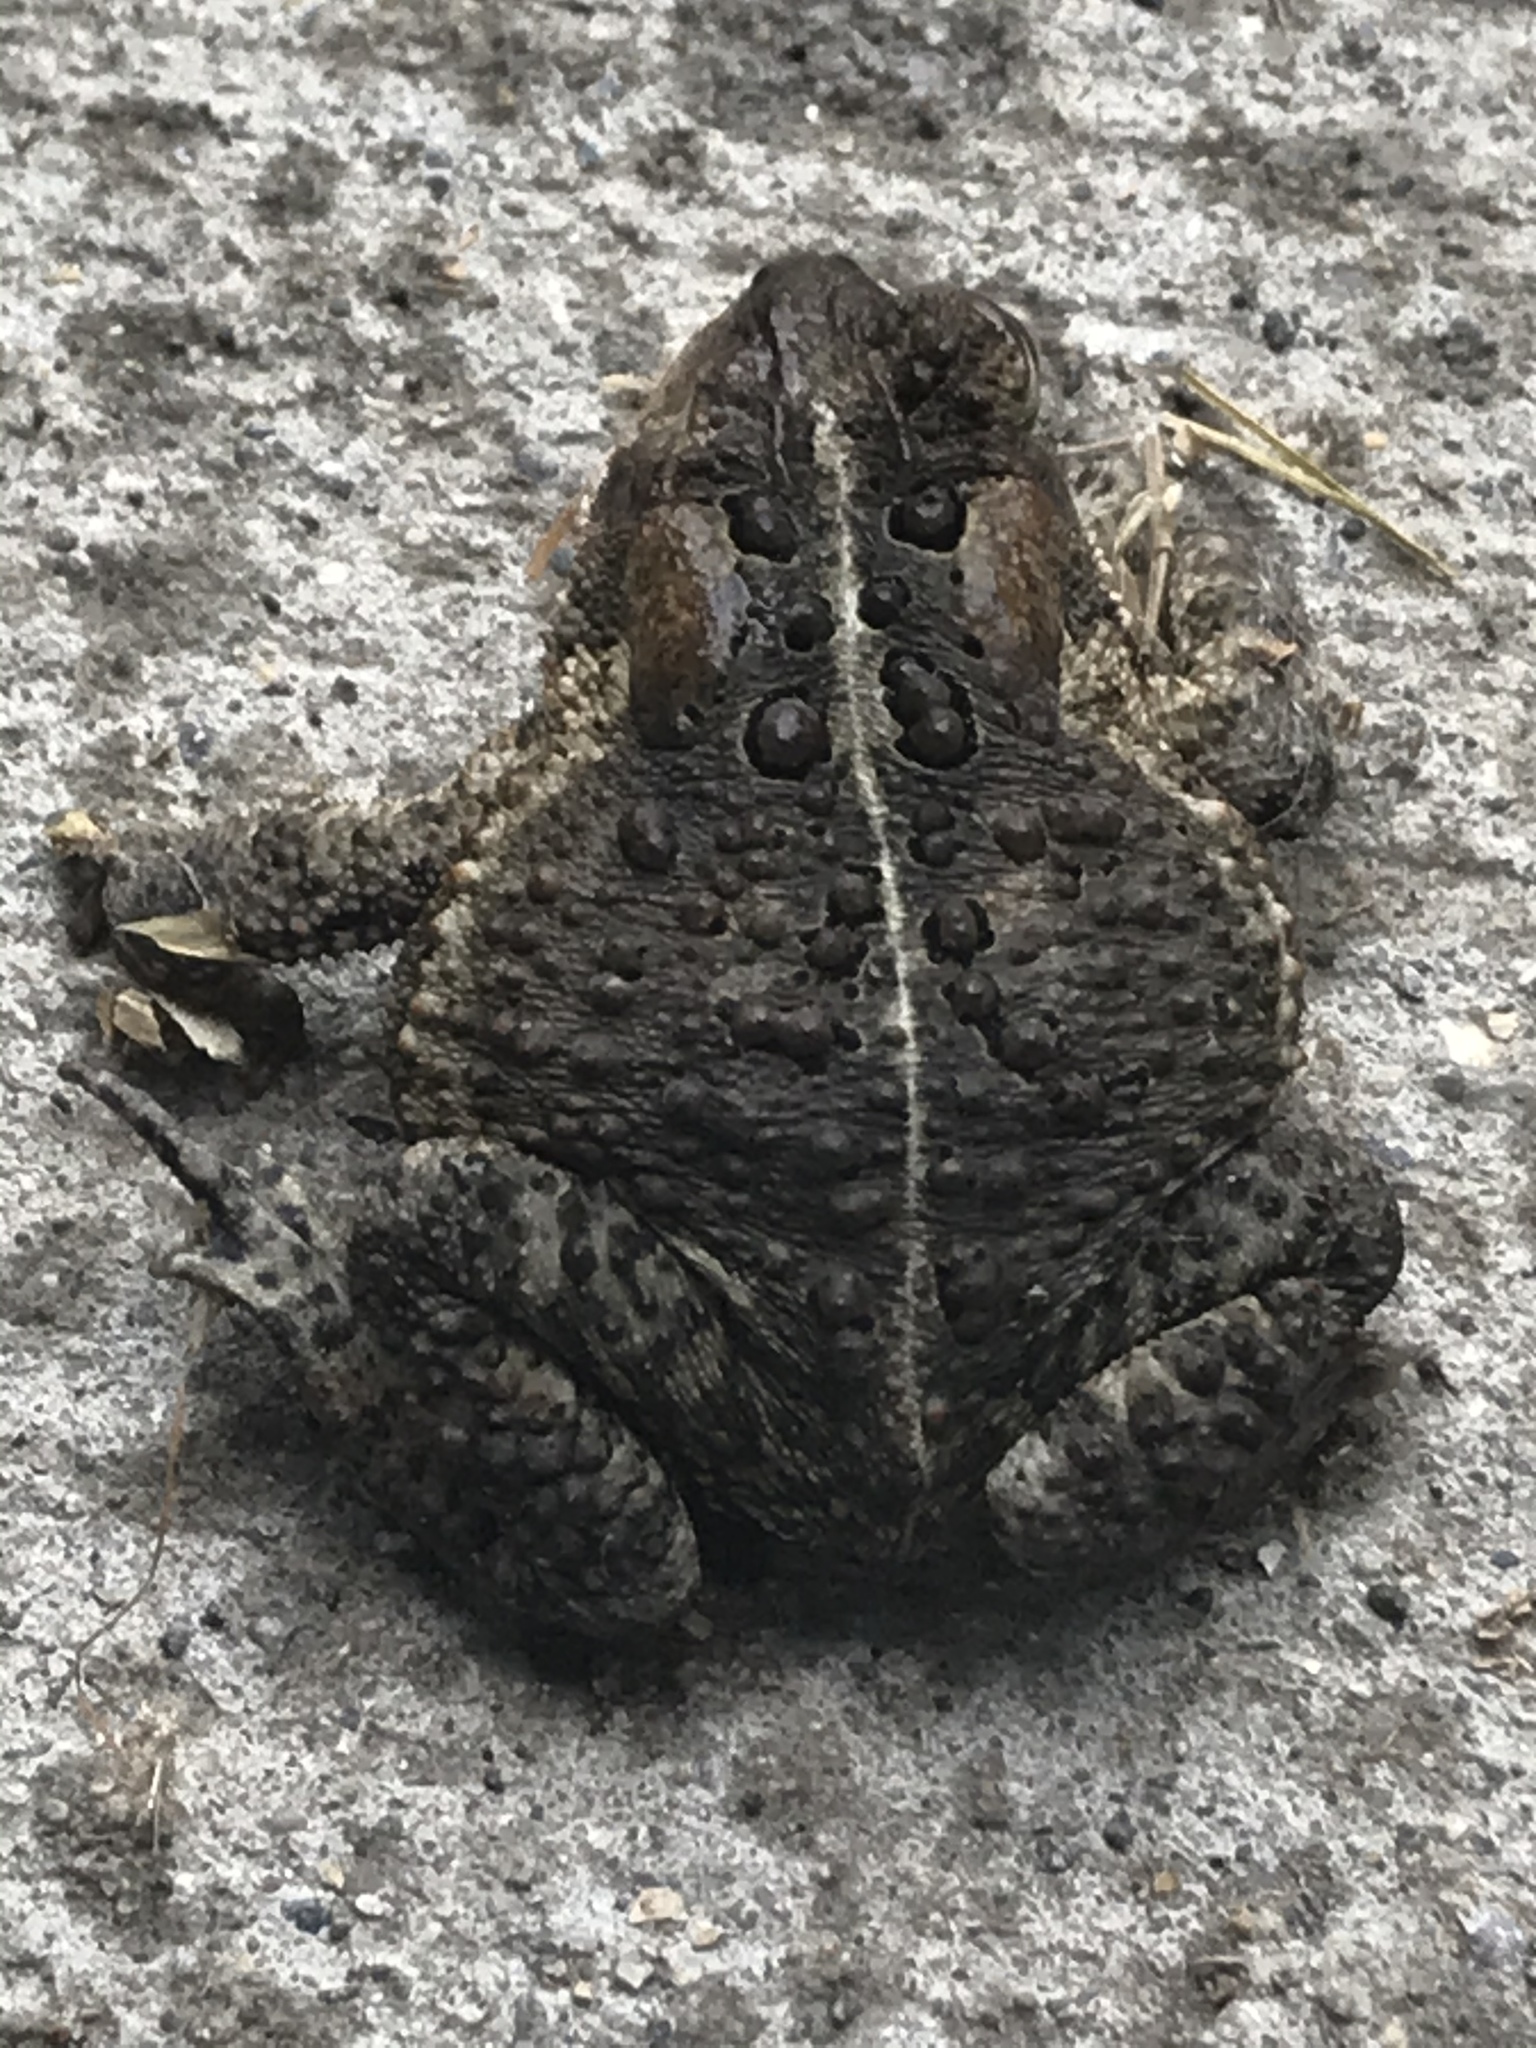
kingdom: Animalia
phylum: Chordata
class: Amphibia
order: Anura
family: Bufonidae
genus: Anaxyrus
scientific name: Anaxyrus americanus
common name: American toad
